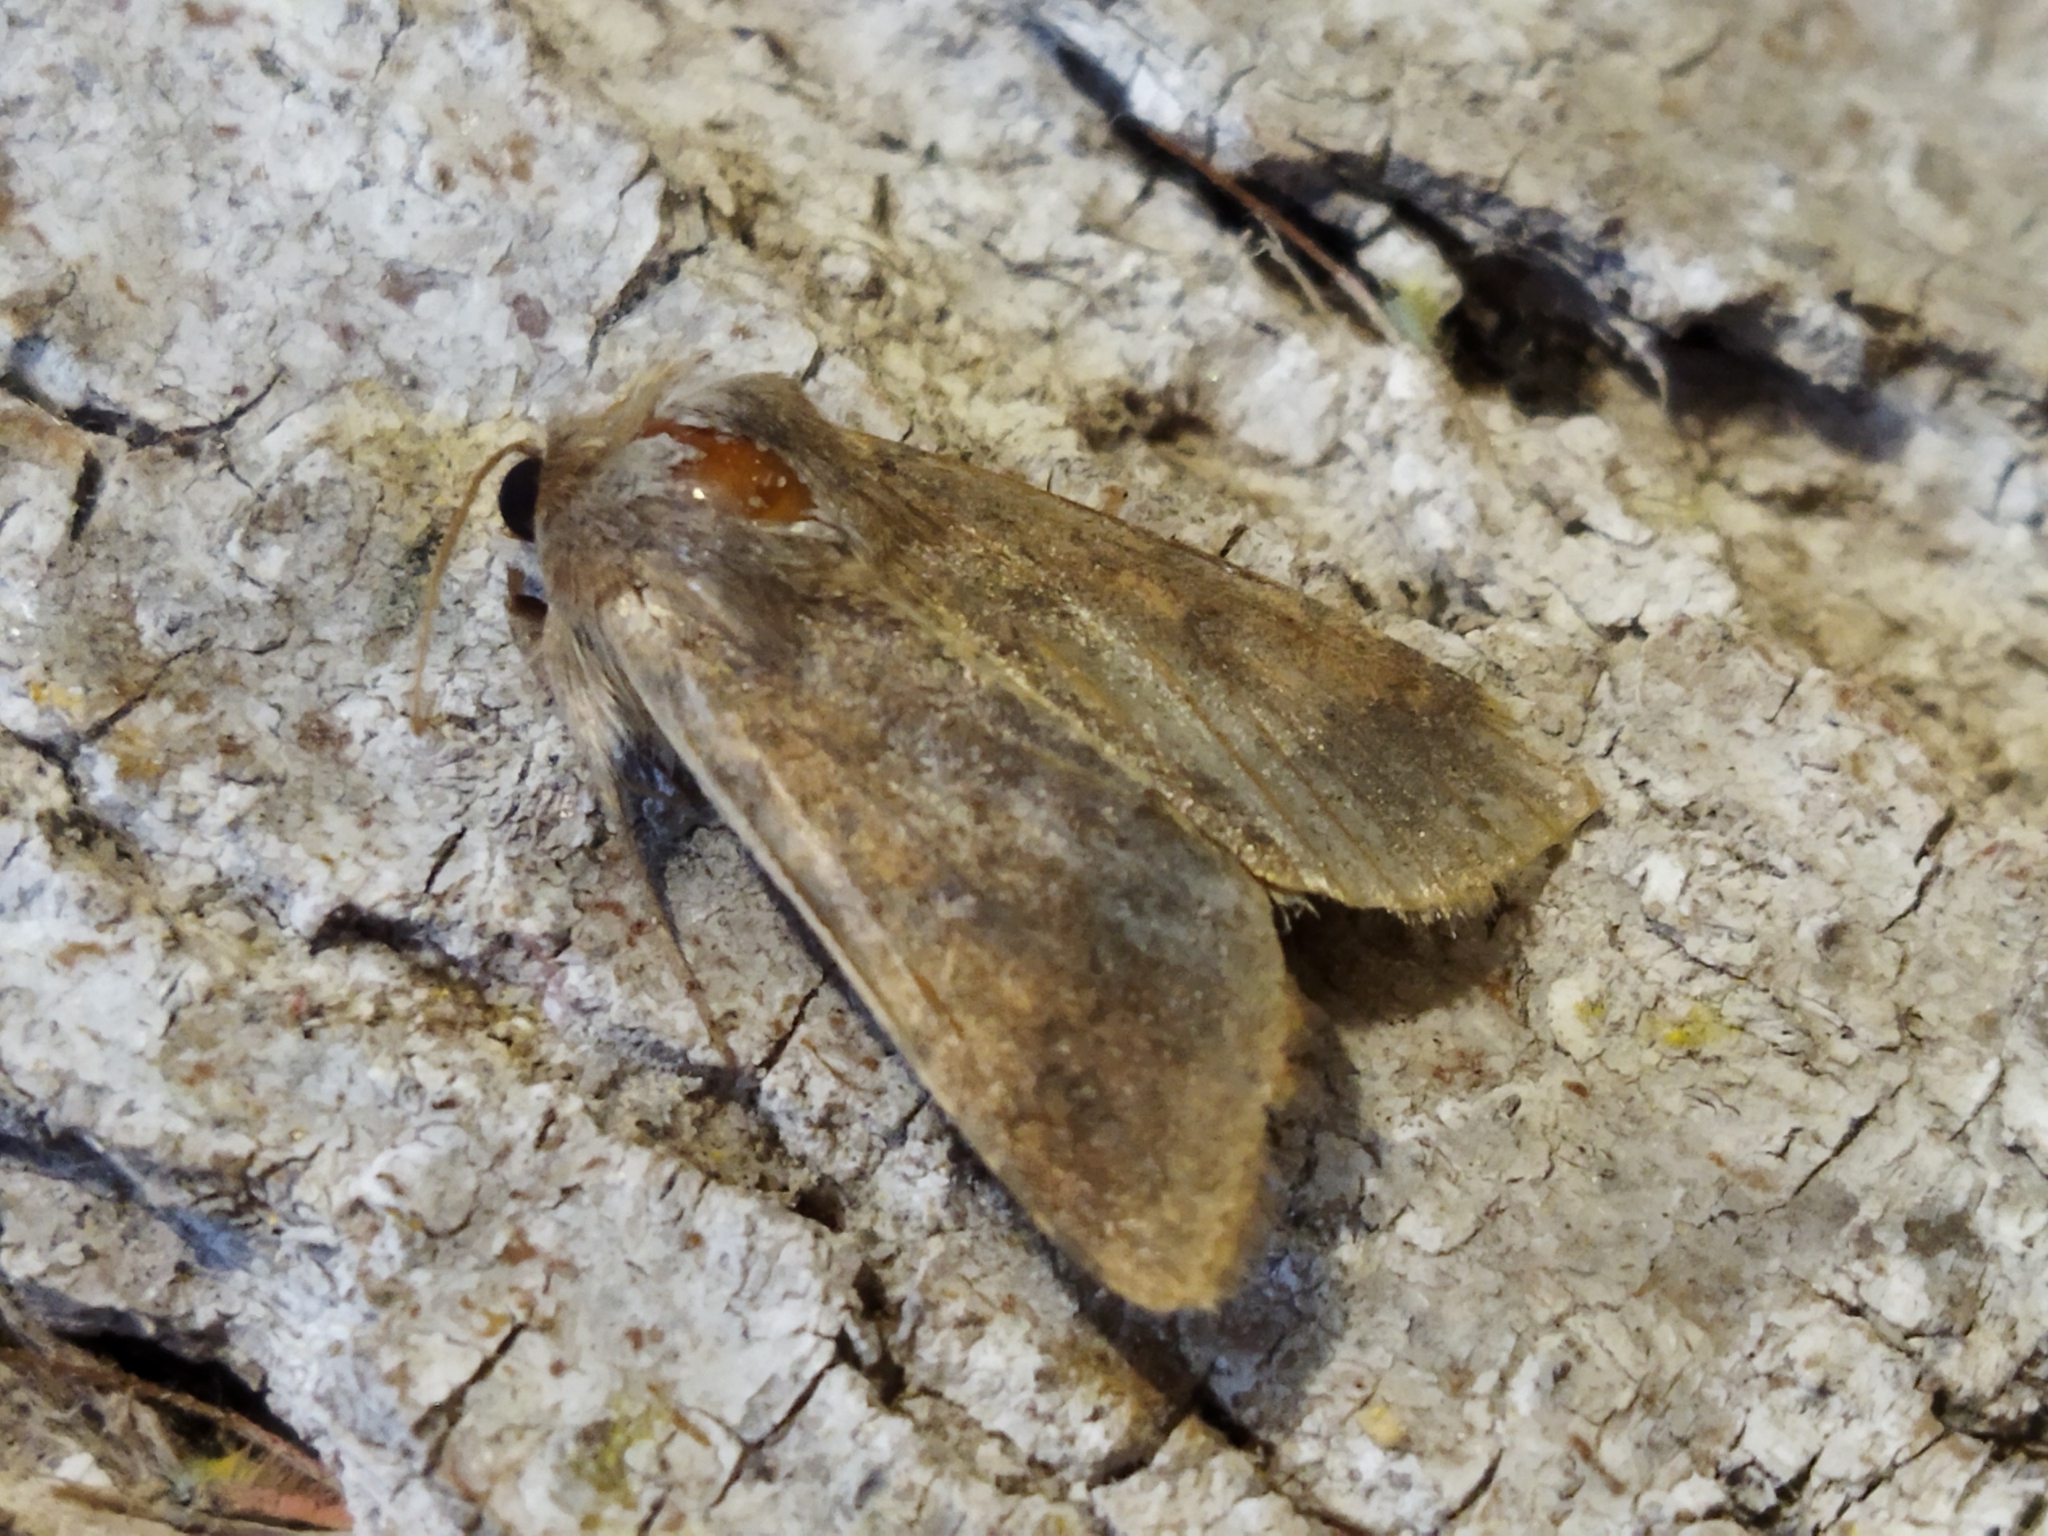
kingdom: Animalia
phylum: Arthropoda
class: Insecta
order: Lepidoptera
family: Noctuidae
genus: Helicoverpa
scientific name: Helicoverpa armigera
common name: Cotton bollworm
